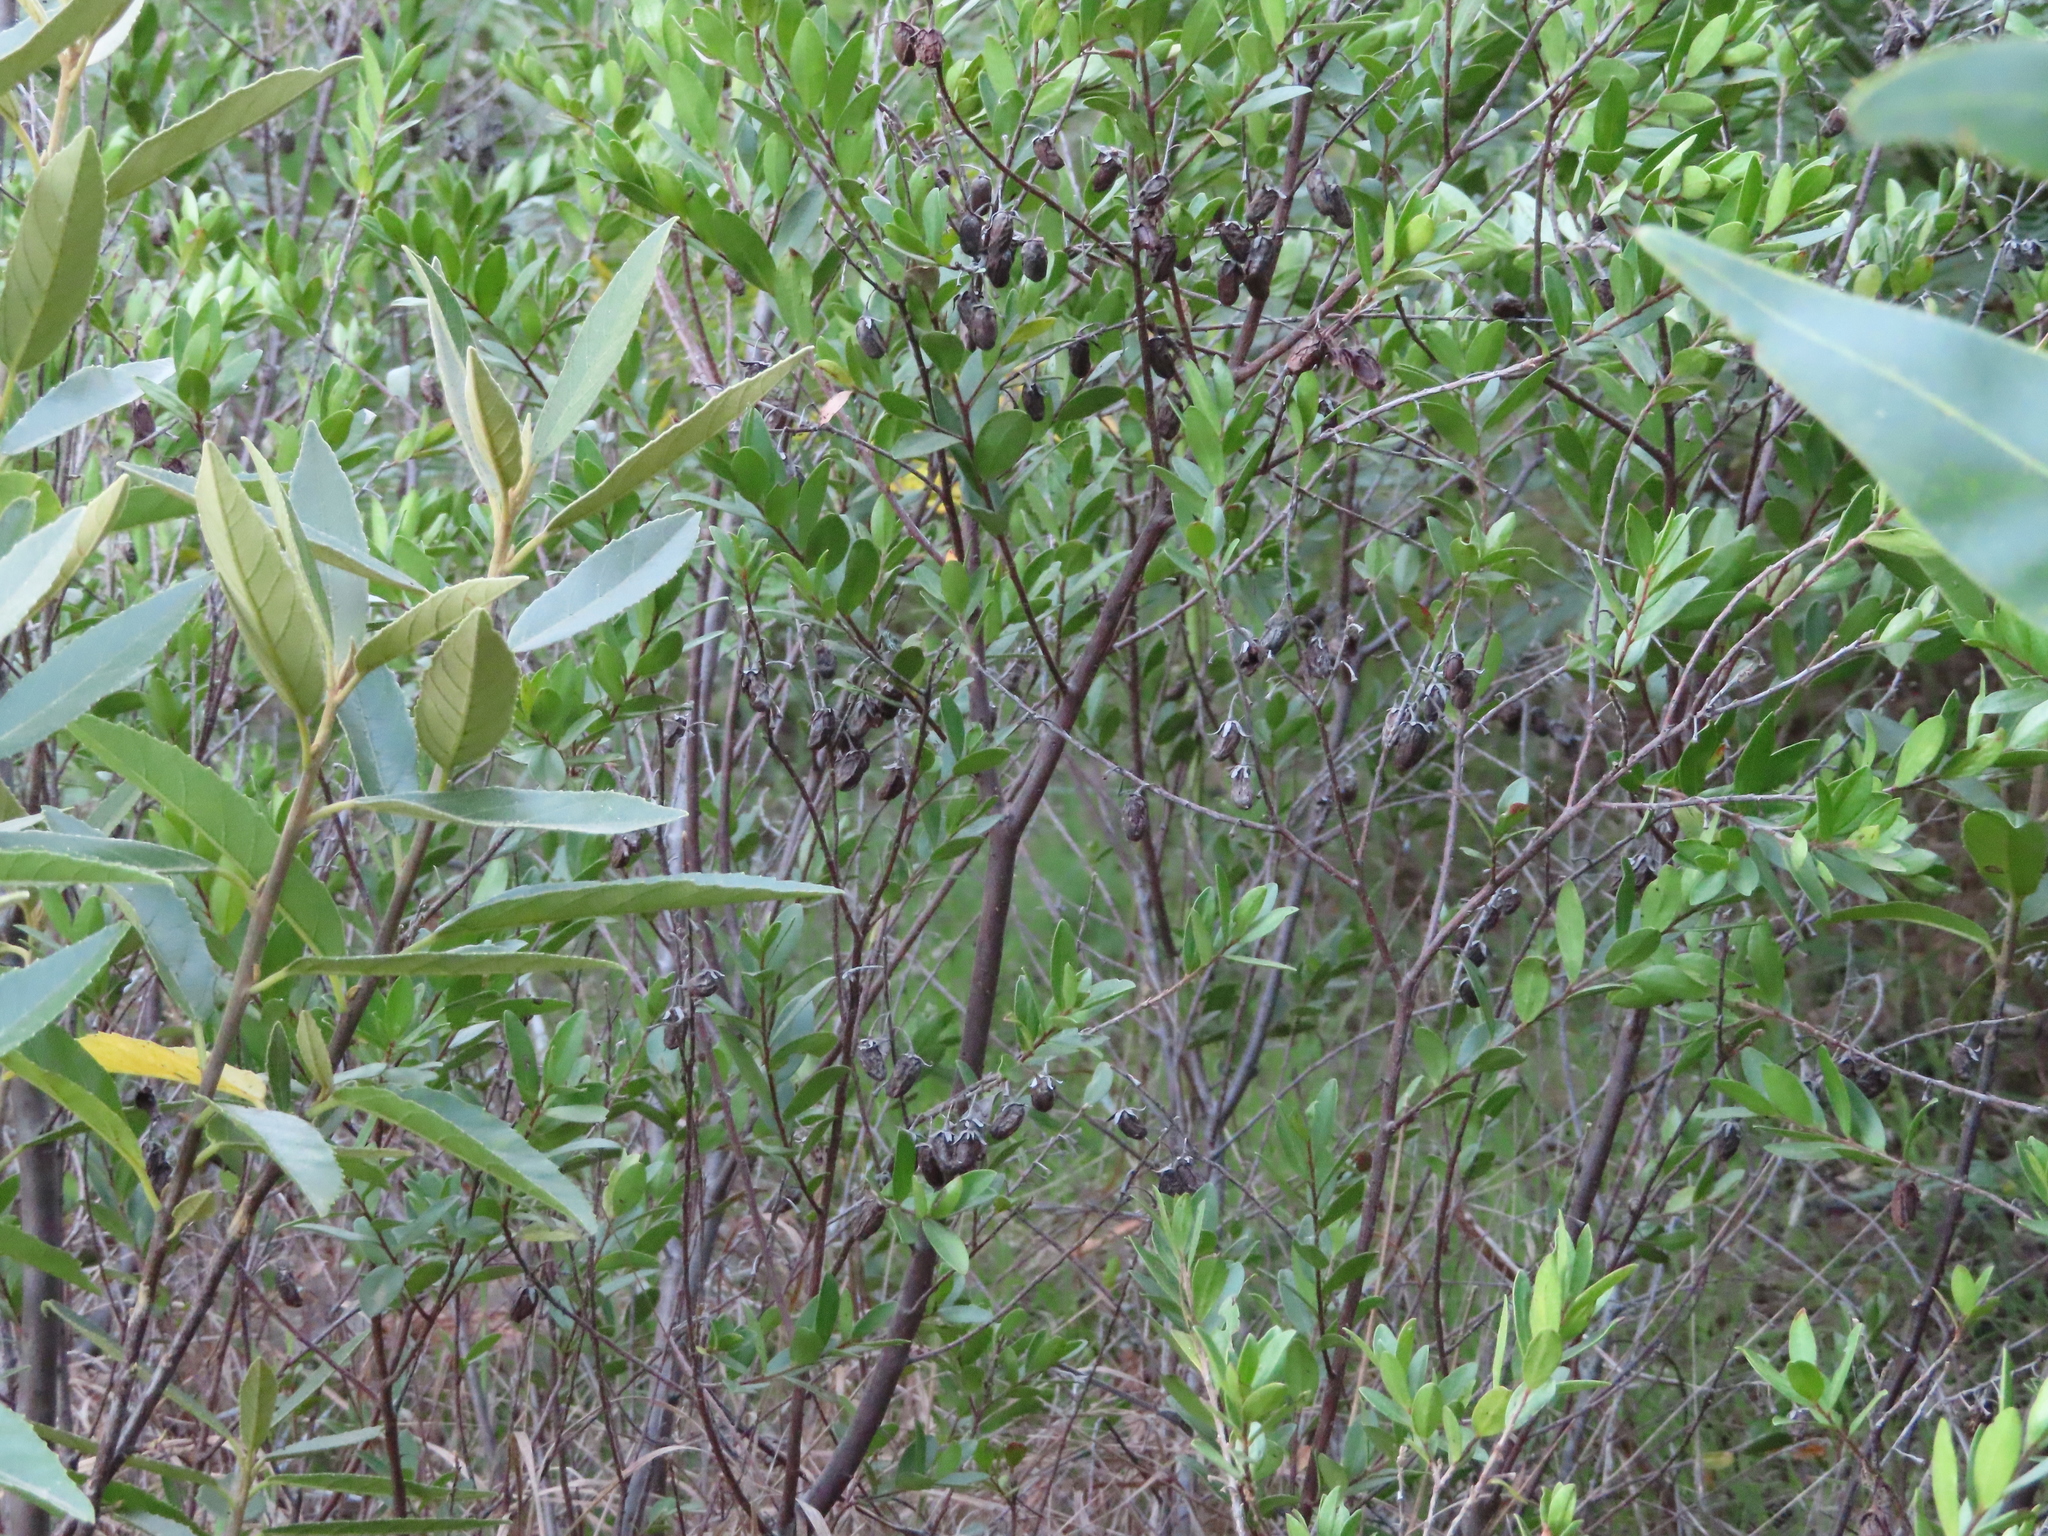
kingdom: Plantae
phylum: Tracheophyta
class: Magnoliopsida
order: Ericales
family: Ebenaceae
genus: Diospyros
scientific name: Diospyros glabra
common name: Fynbos star apple
